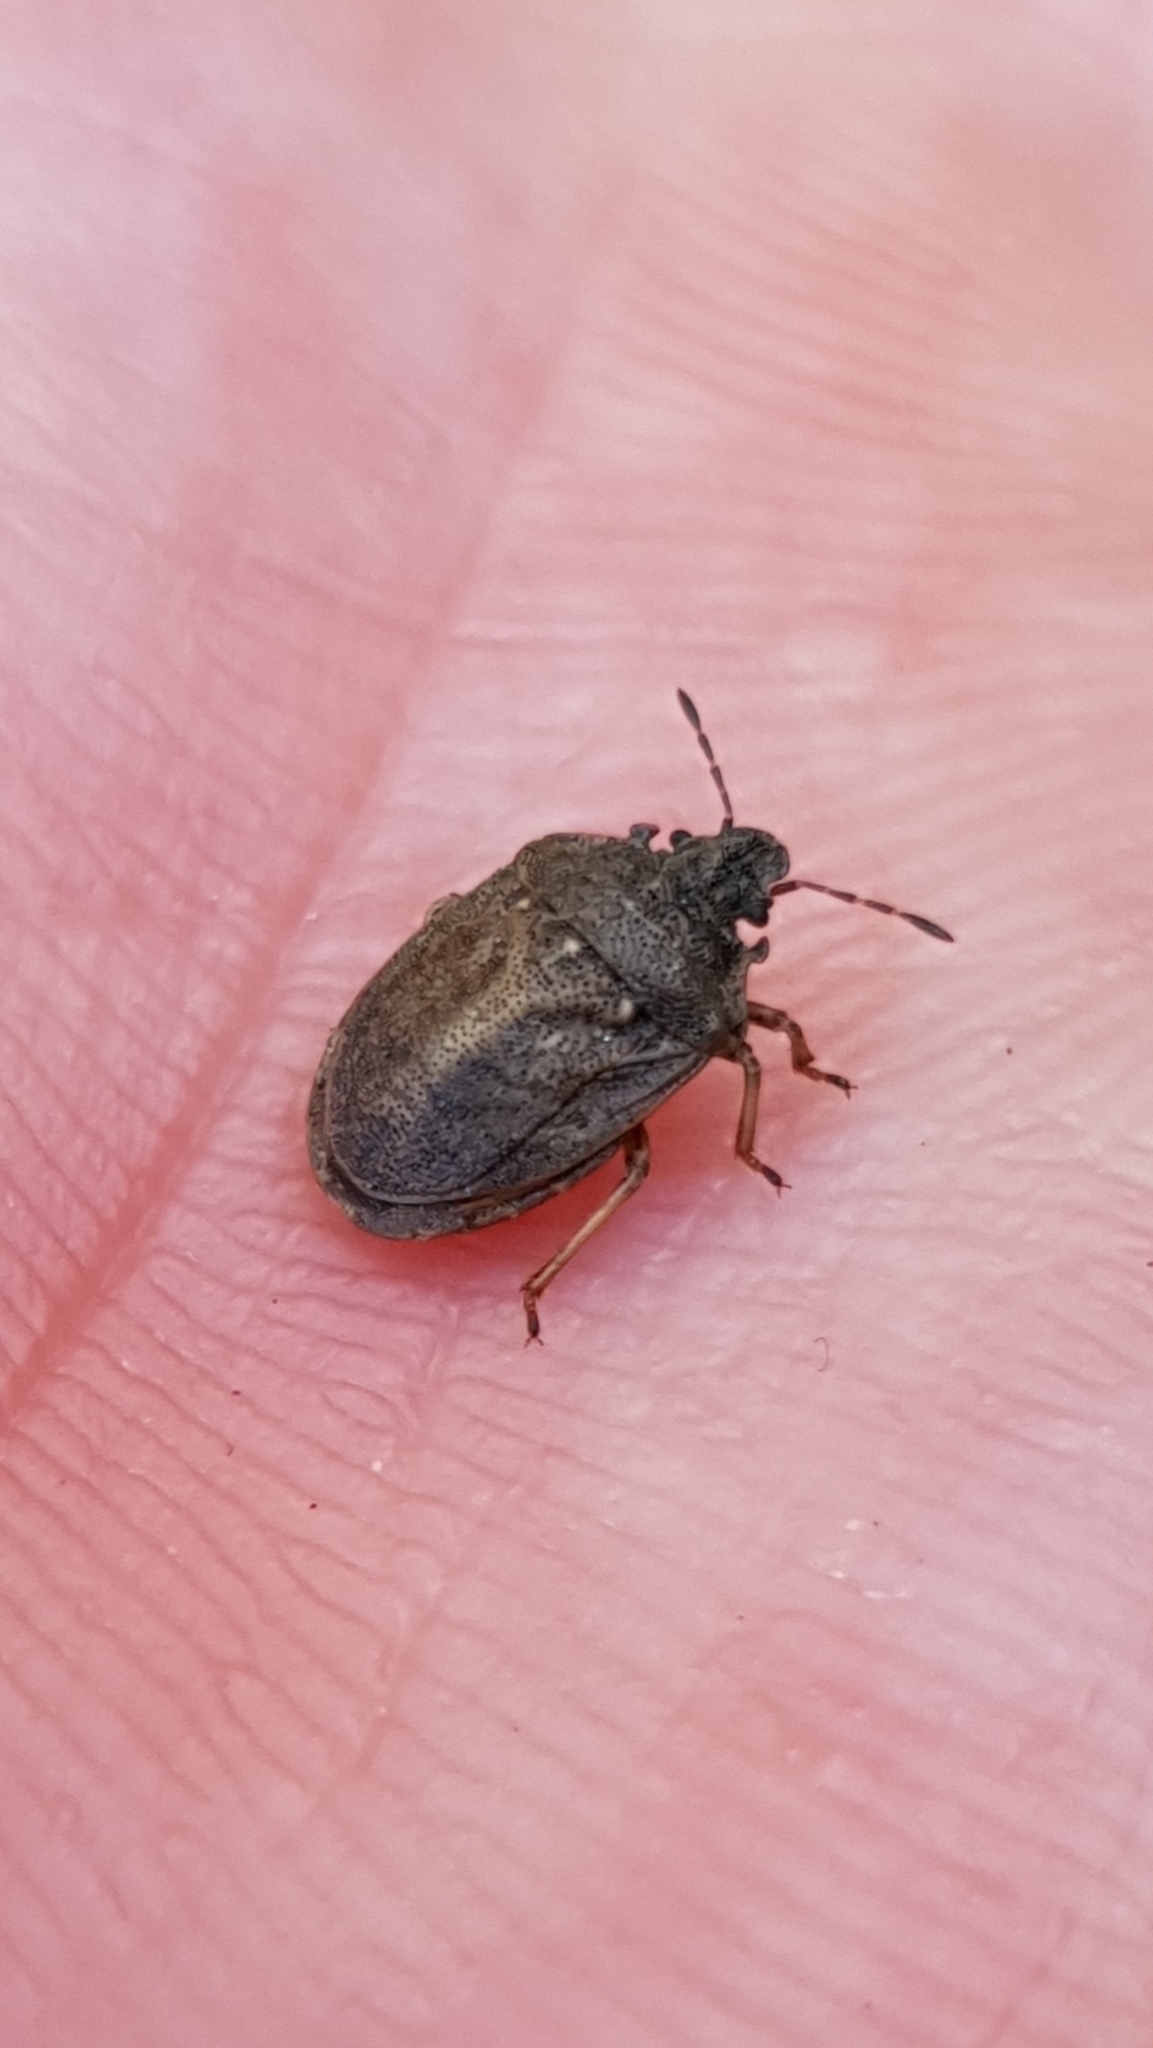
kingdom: Animalia
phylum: Arthropoda
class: Insecta
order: Hemiptera
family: Pentatomidae
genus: Podops
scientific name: Podops inunctus
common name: Turtle bug
